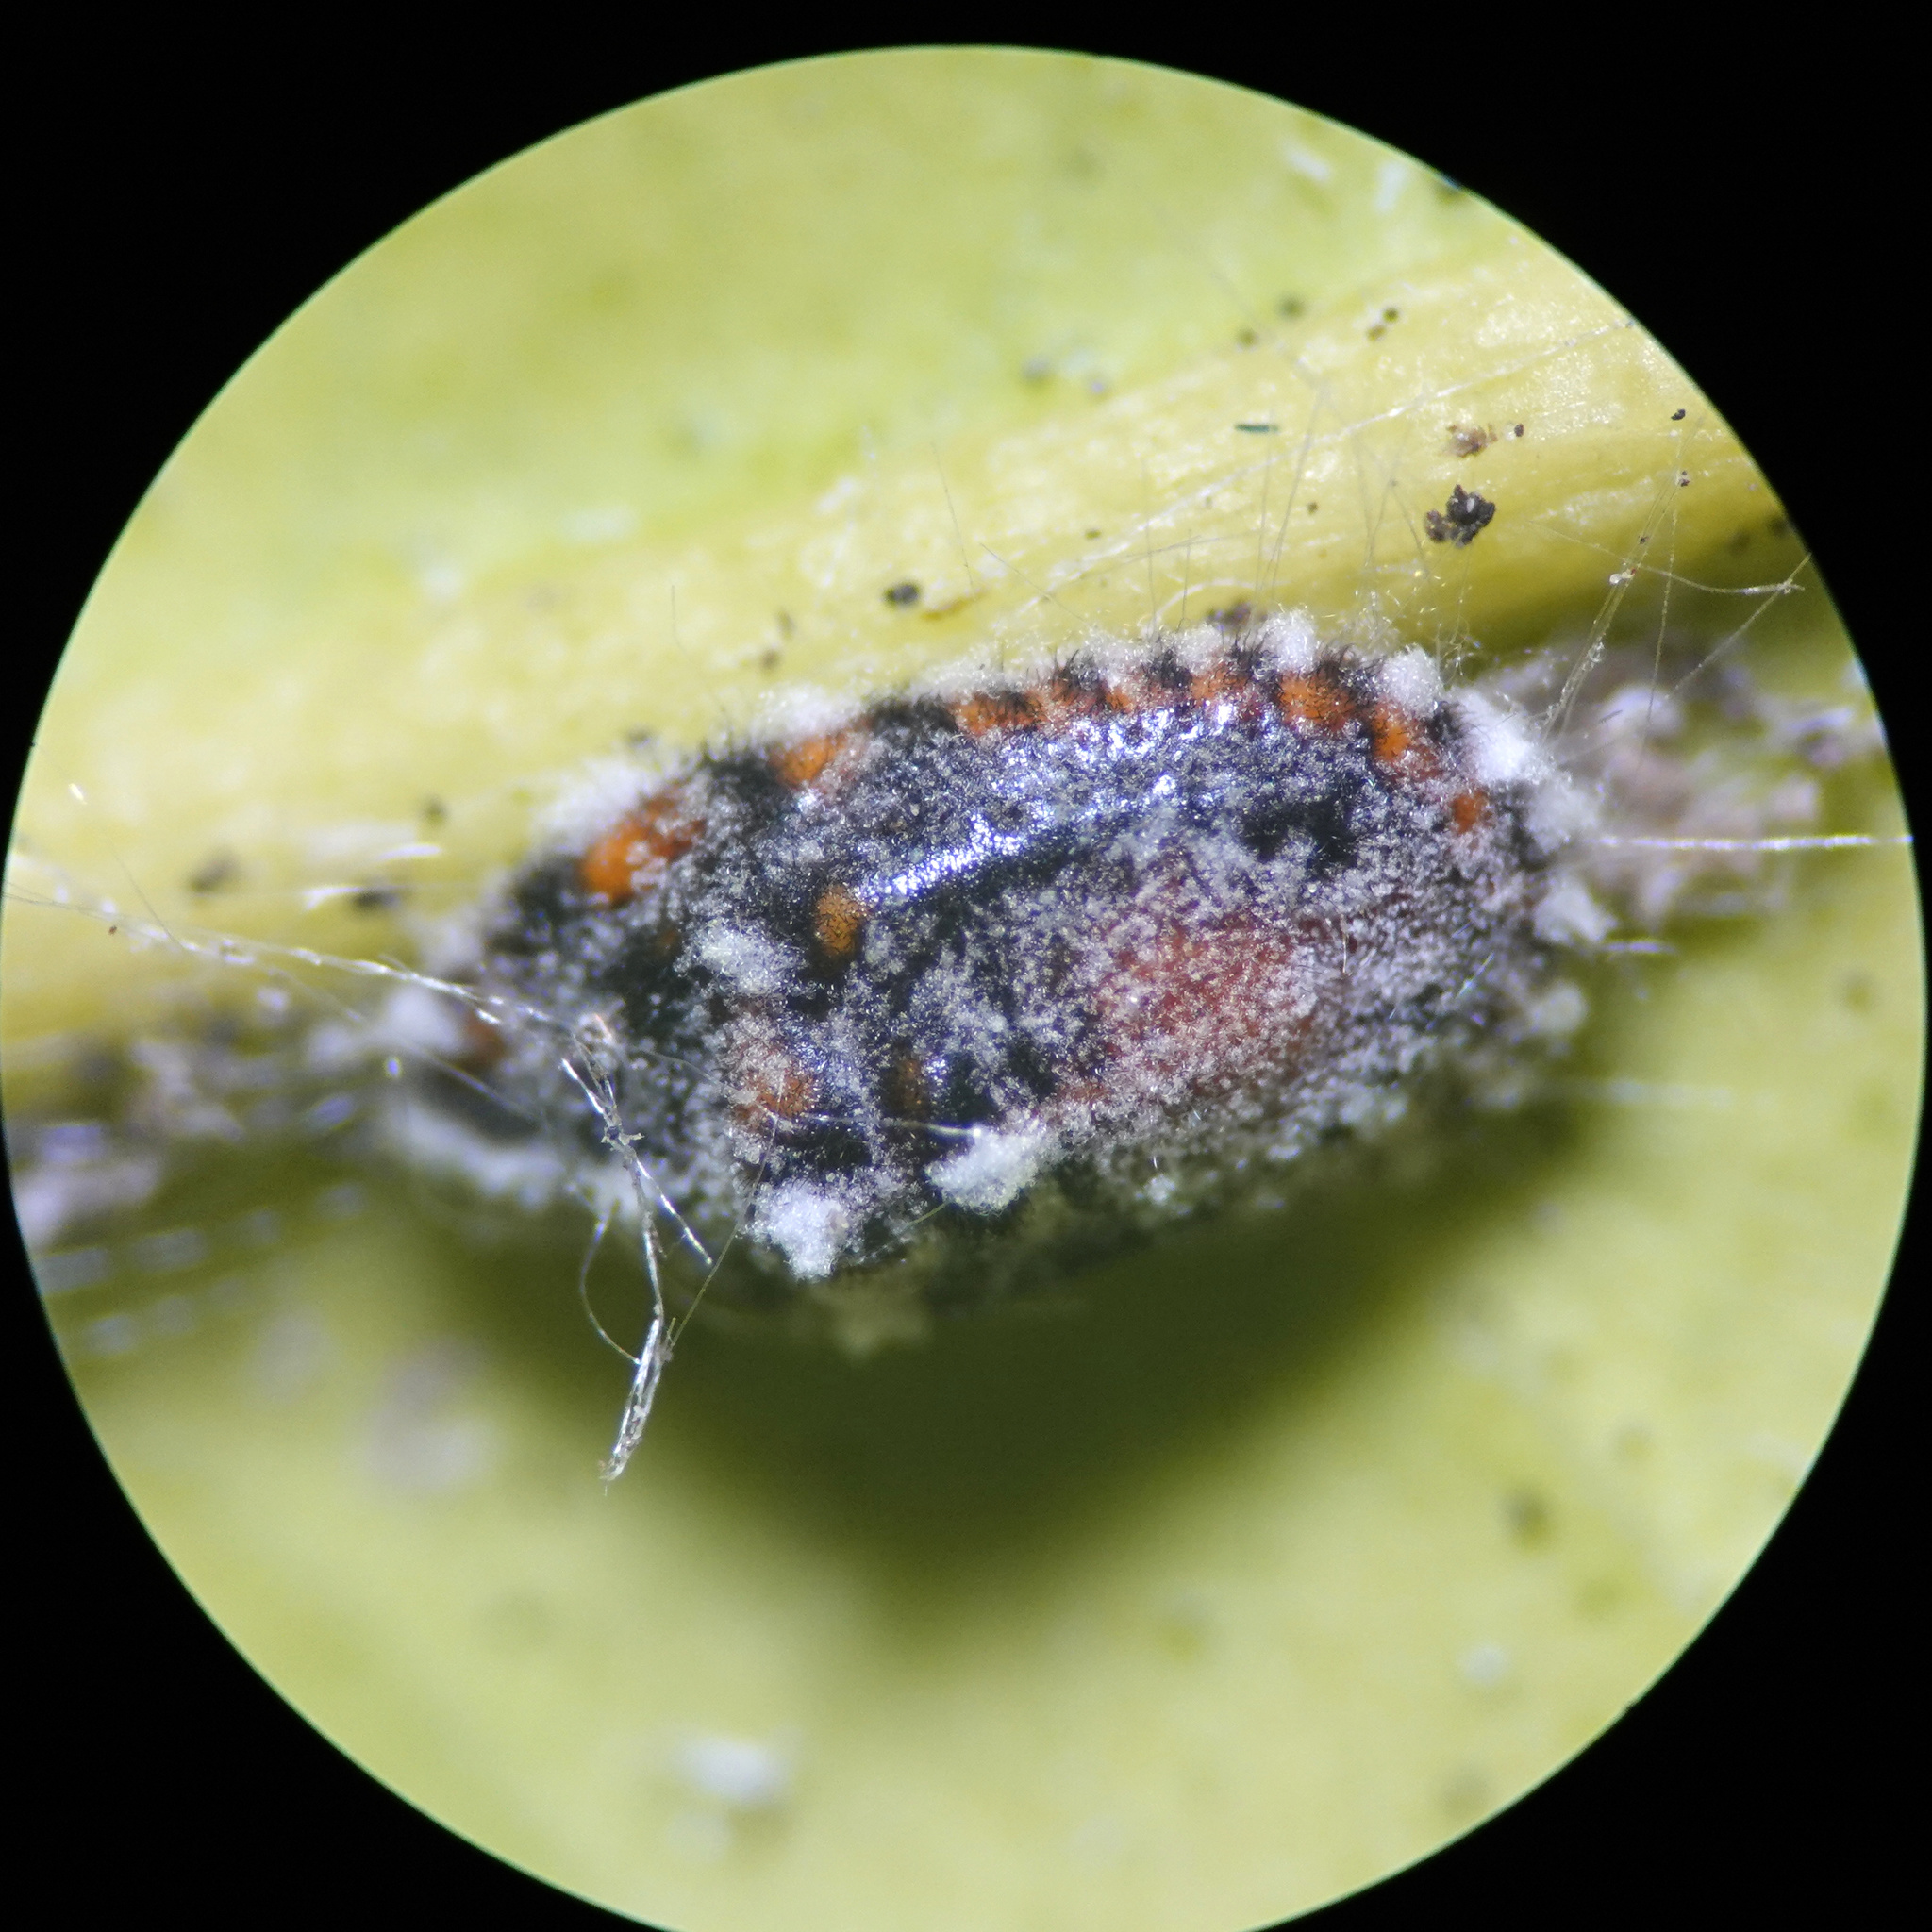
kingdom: Animalia
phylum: Arthropoda
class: Insecta
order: Hemiptera
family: Margarodidae
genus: Icerya
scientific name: Icerya purchasi
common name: Cottony cushion scale
